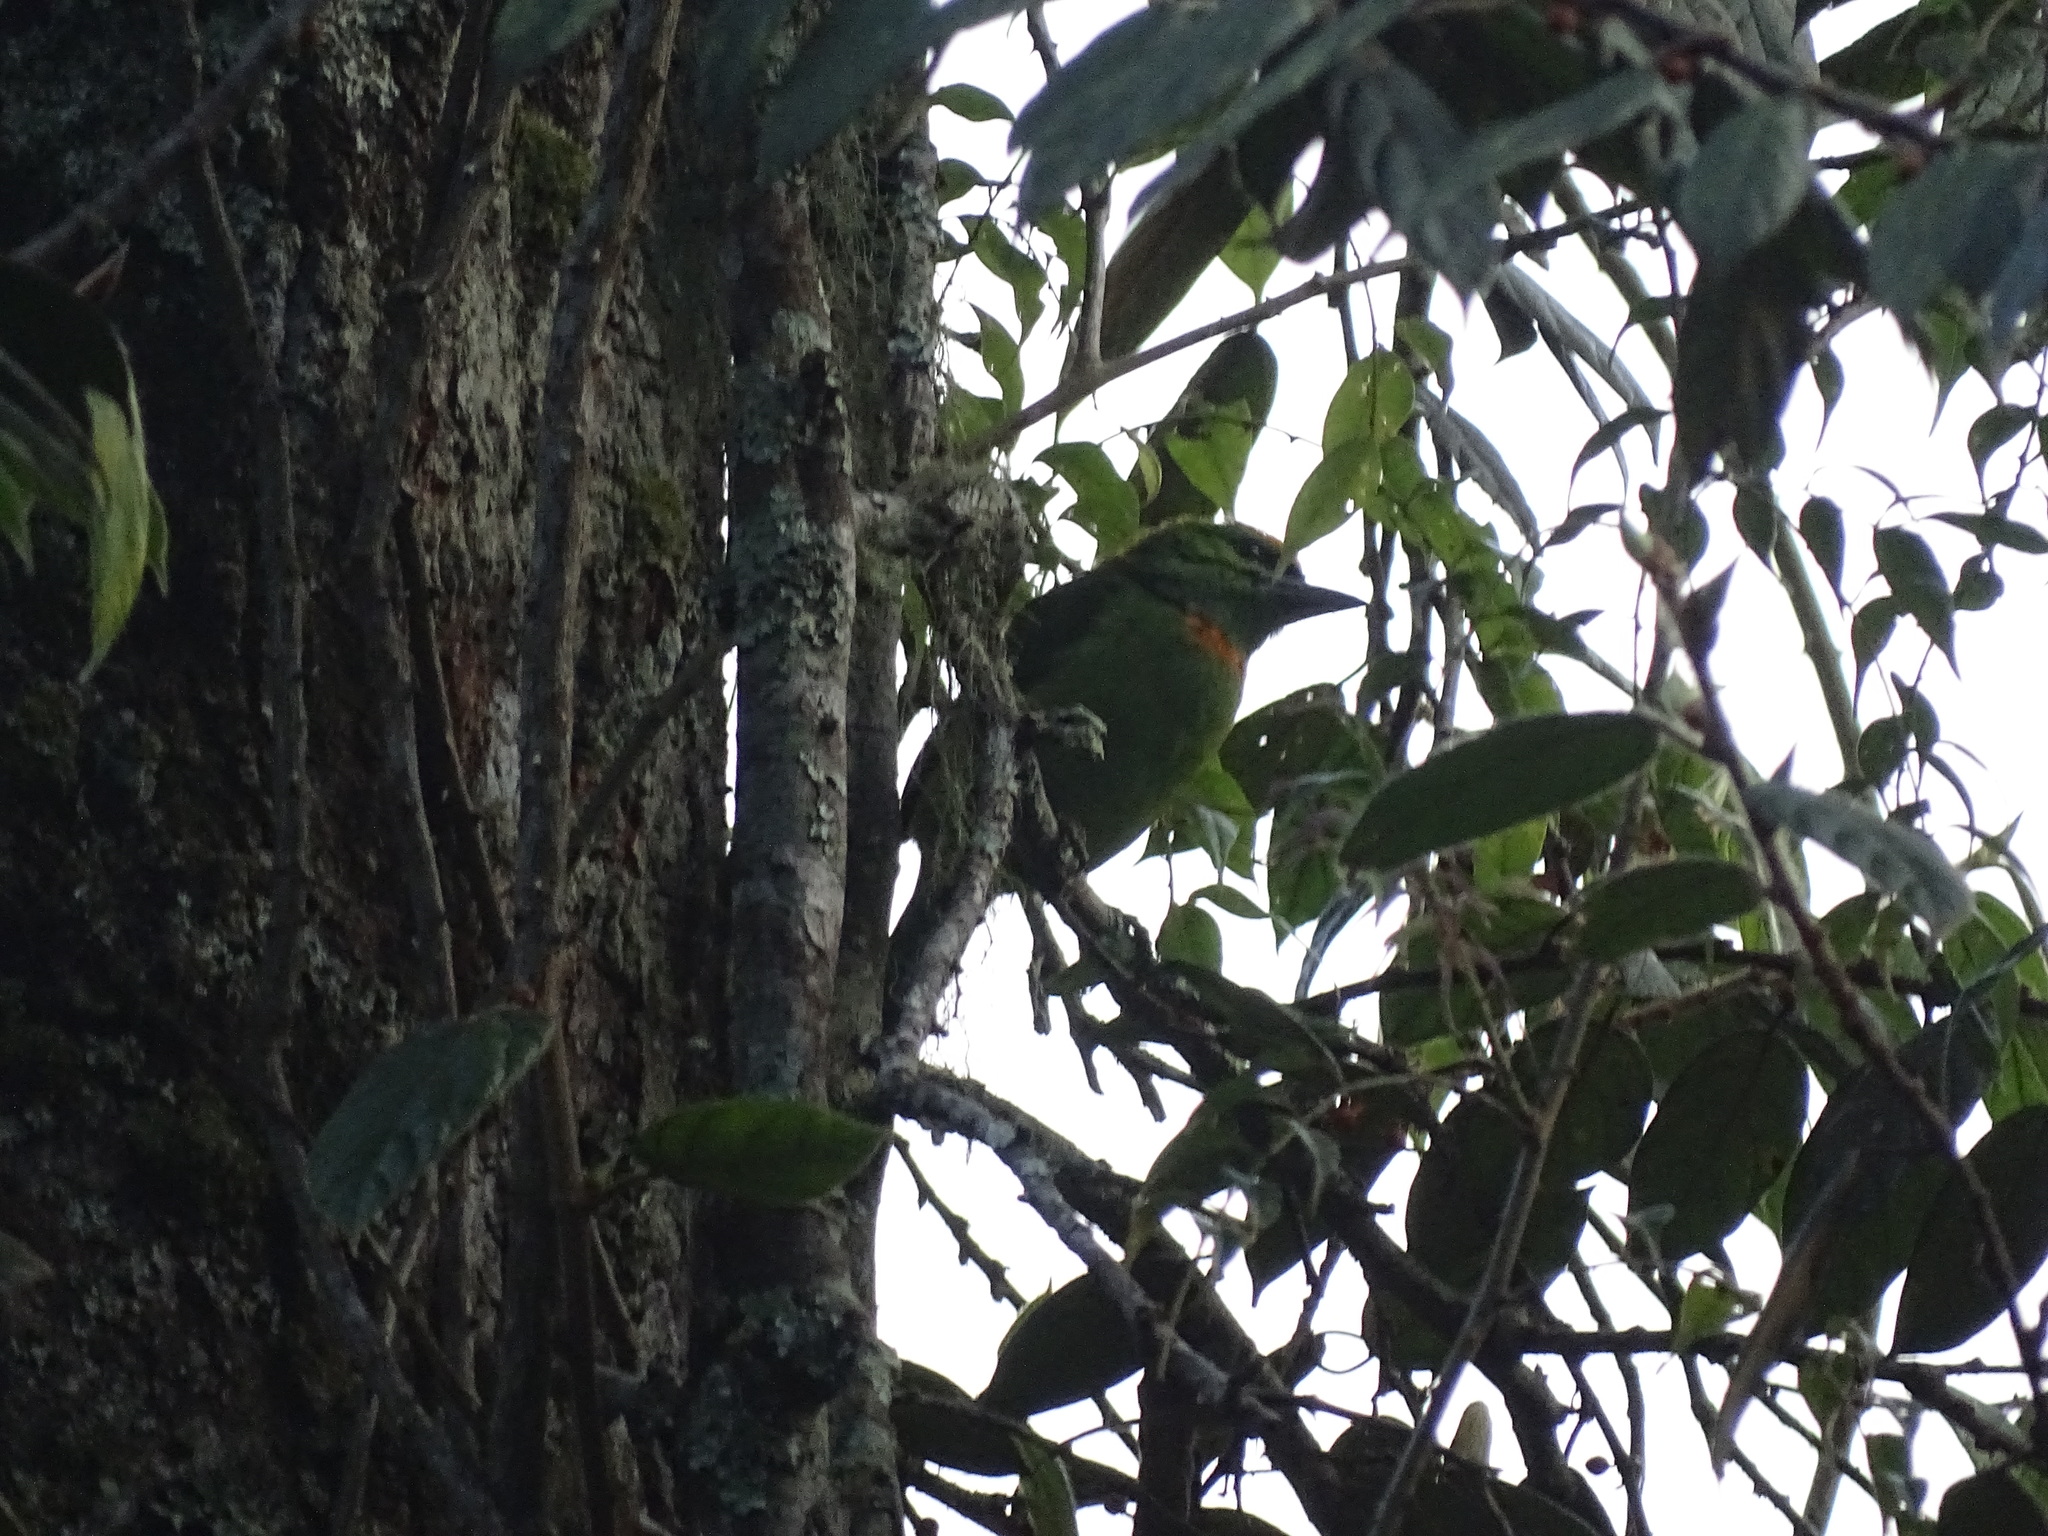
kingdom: Animalia
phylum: Chordata
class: Aves
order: Piciformes
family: Megalaimidae
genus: Psilopogon
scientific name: Psilopogon armillaris
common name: Flame-fronted barbet
